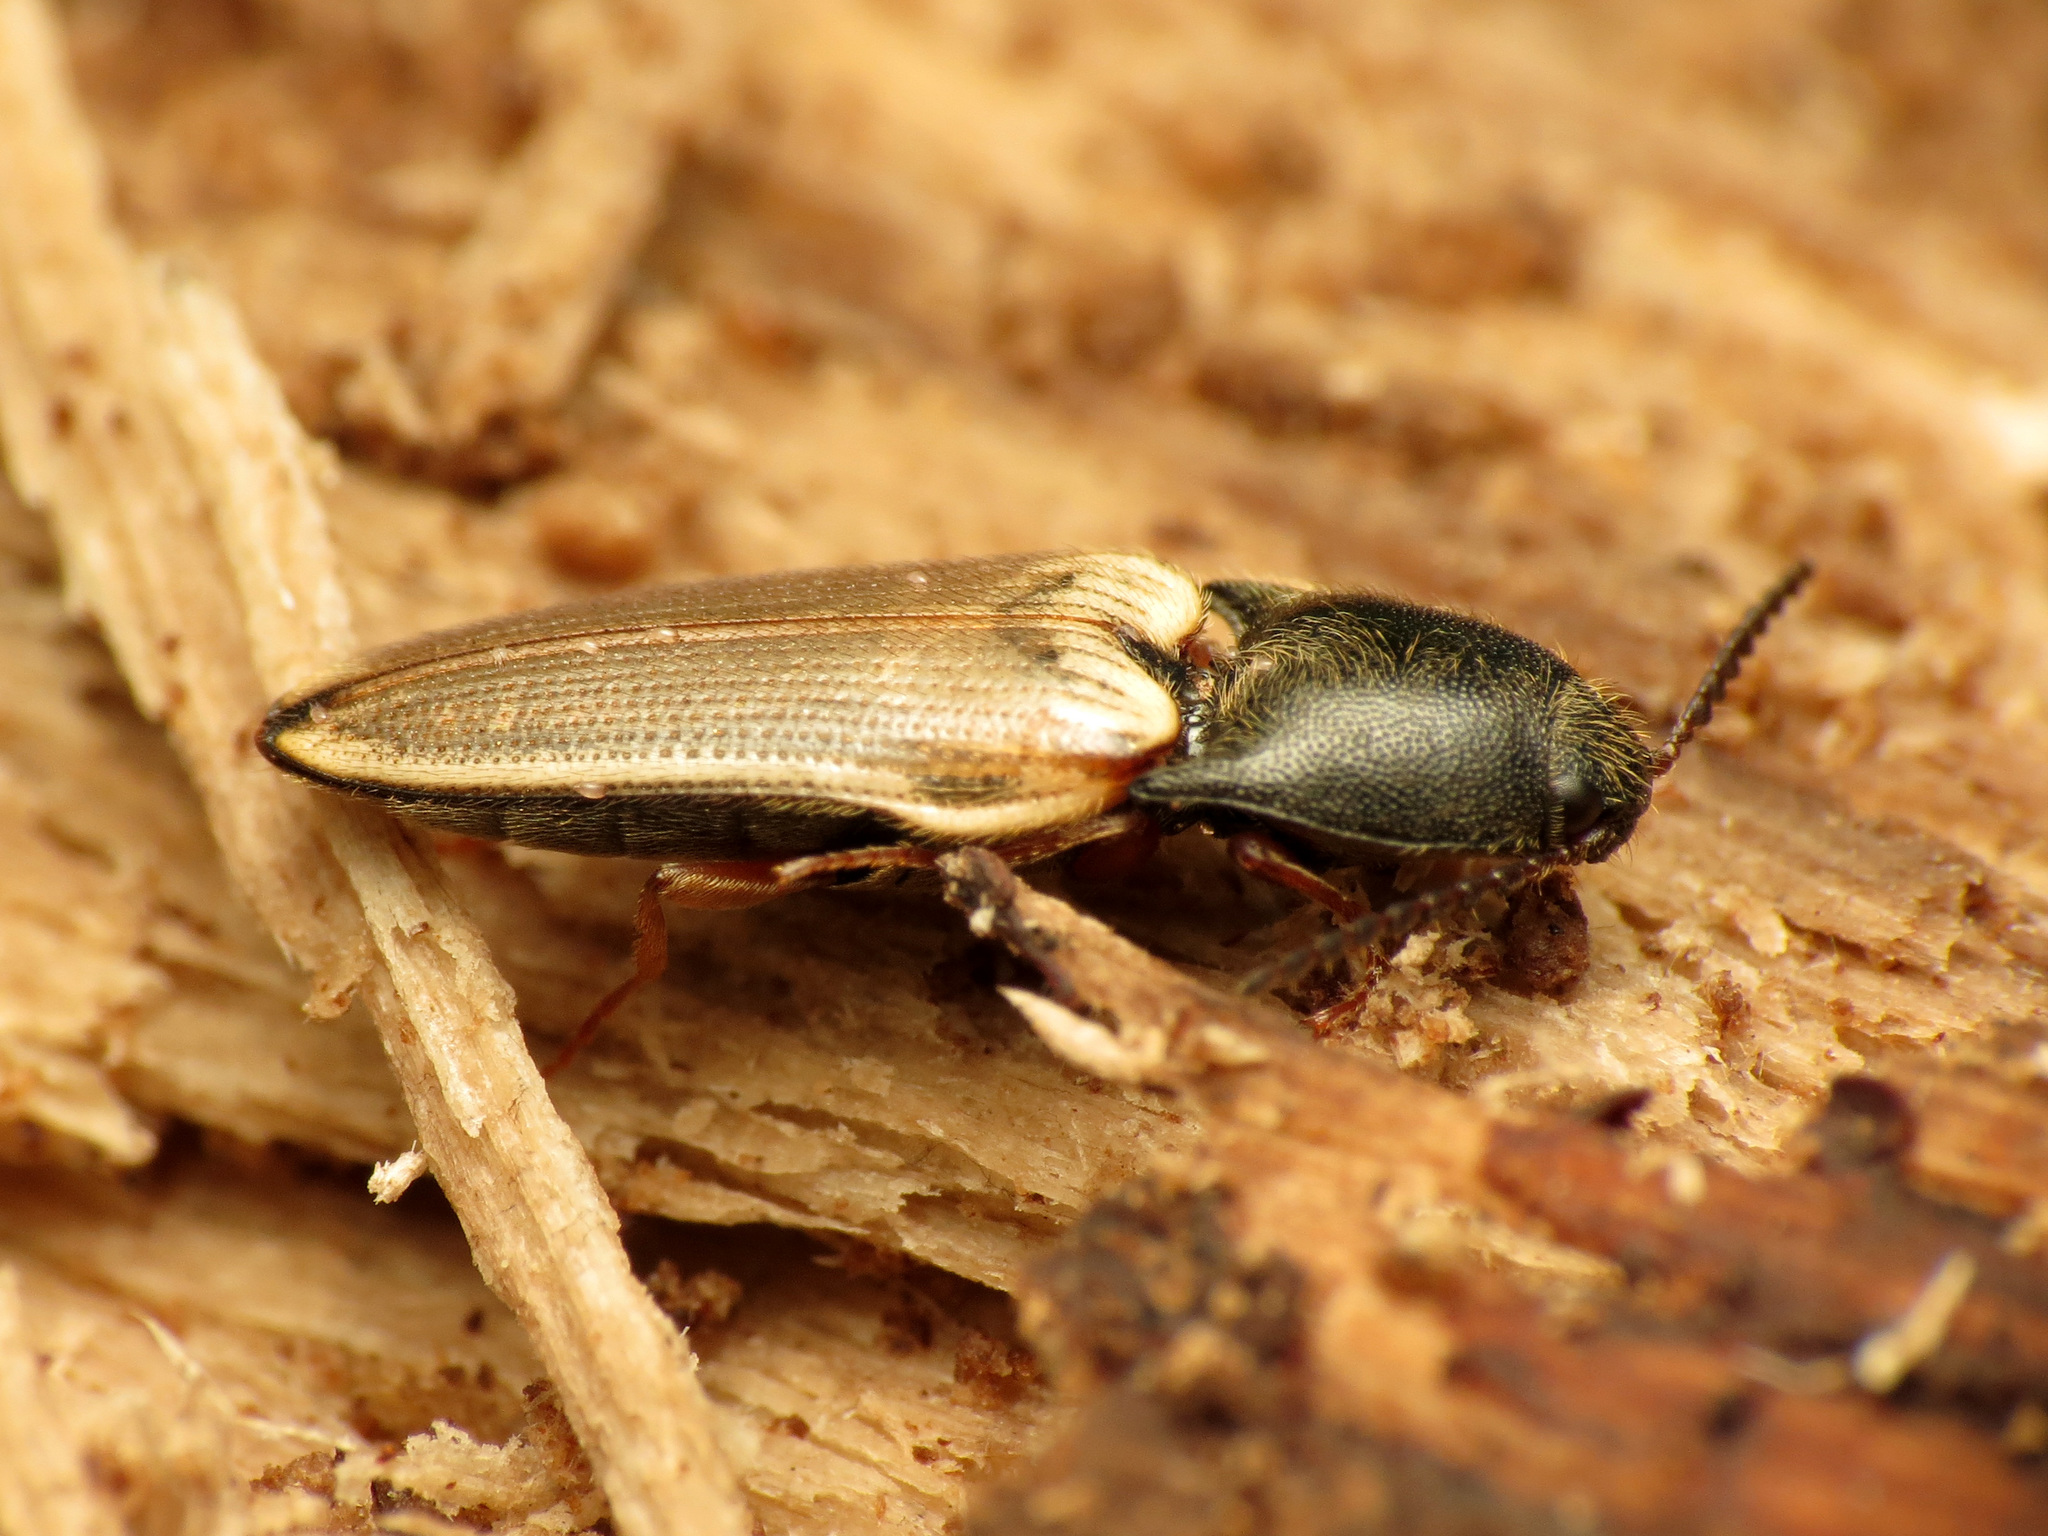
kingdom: Animalia
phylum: Arthropoda
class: Insecta
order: Coleoptera
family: Elateridae
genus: Ampedus
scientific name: Ampedus nigricollis
